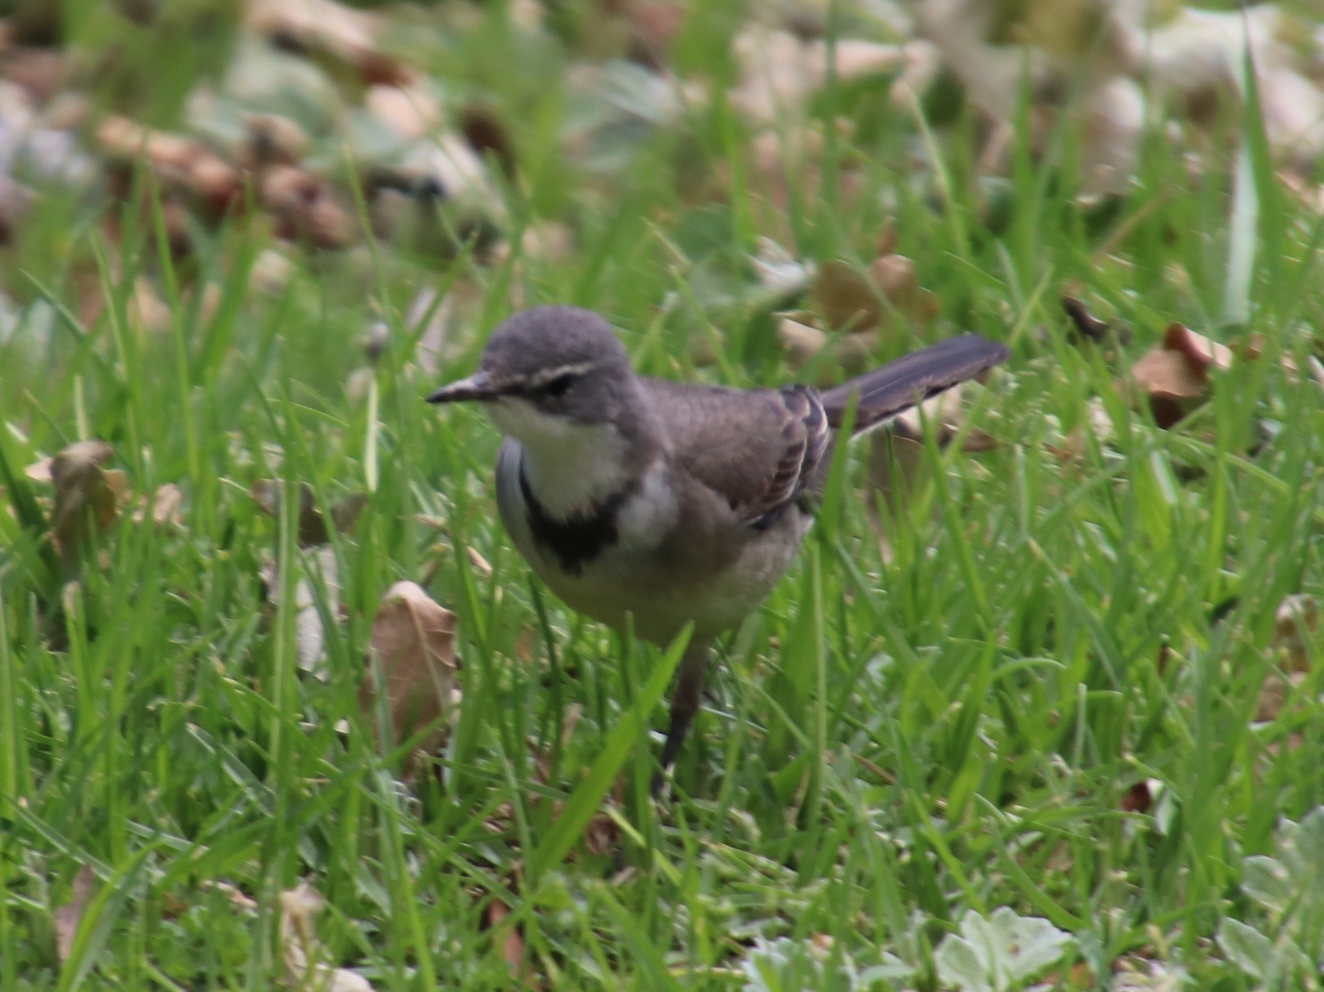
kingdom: Animalia
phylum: Chordata
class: Aves
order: Passeriformes
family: Motacillidae
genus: Motacilla
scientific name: Motacilla capensis
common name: Cape wagtail
